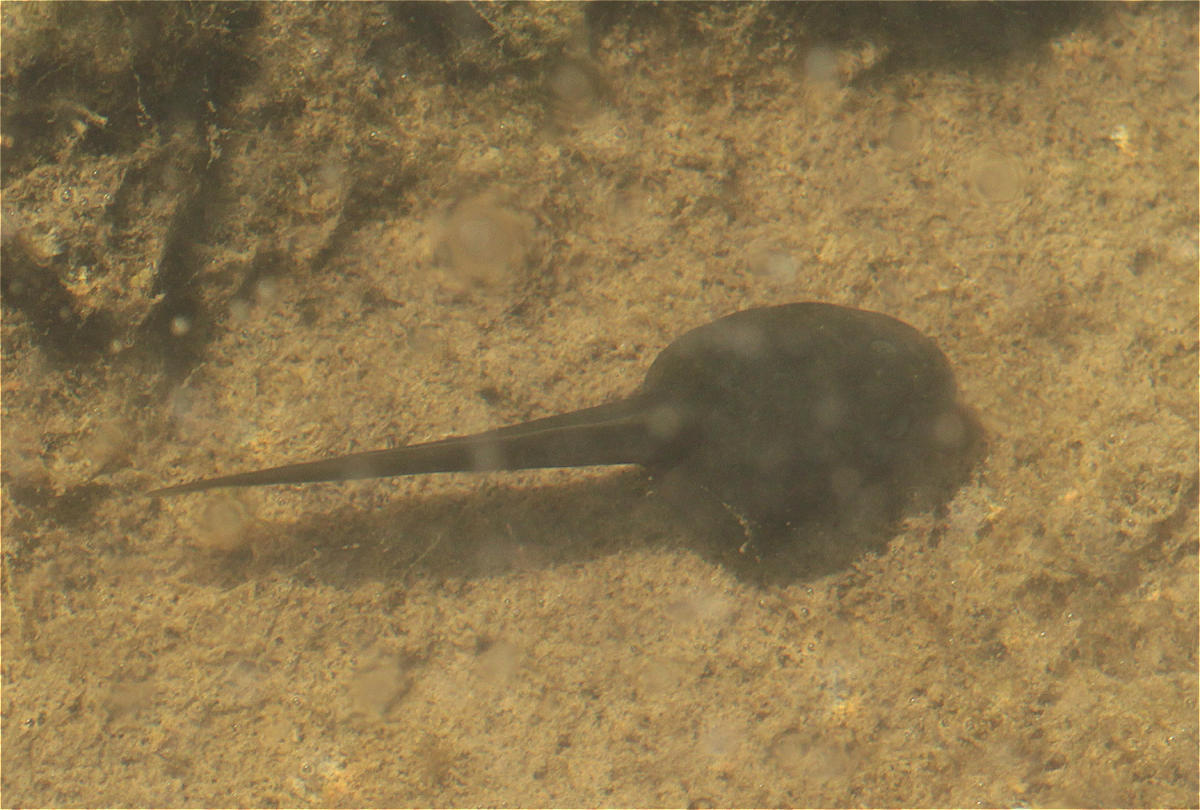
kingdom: Animalia
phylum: Chordata
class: Amphibia
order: Anura
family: Hemiphractidae
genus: Gastrotheca
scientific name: Gastrotheca cuencana
